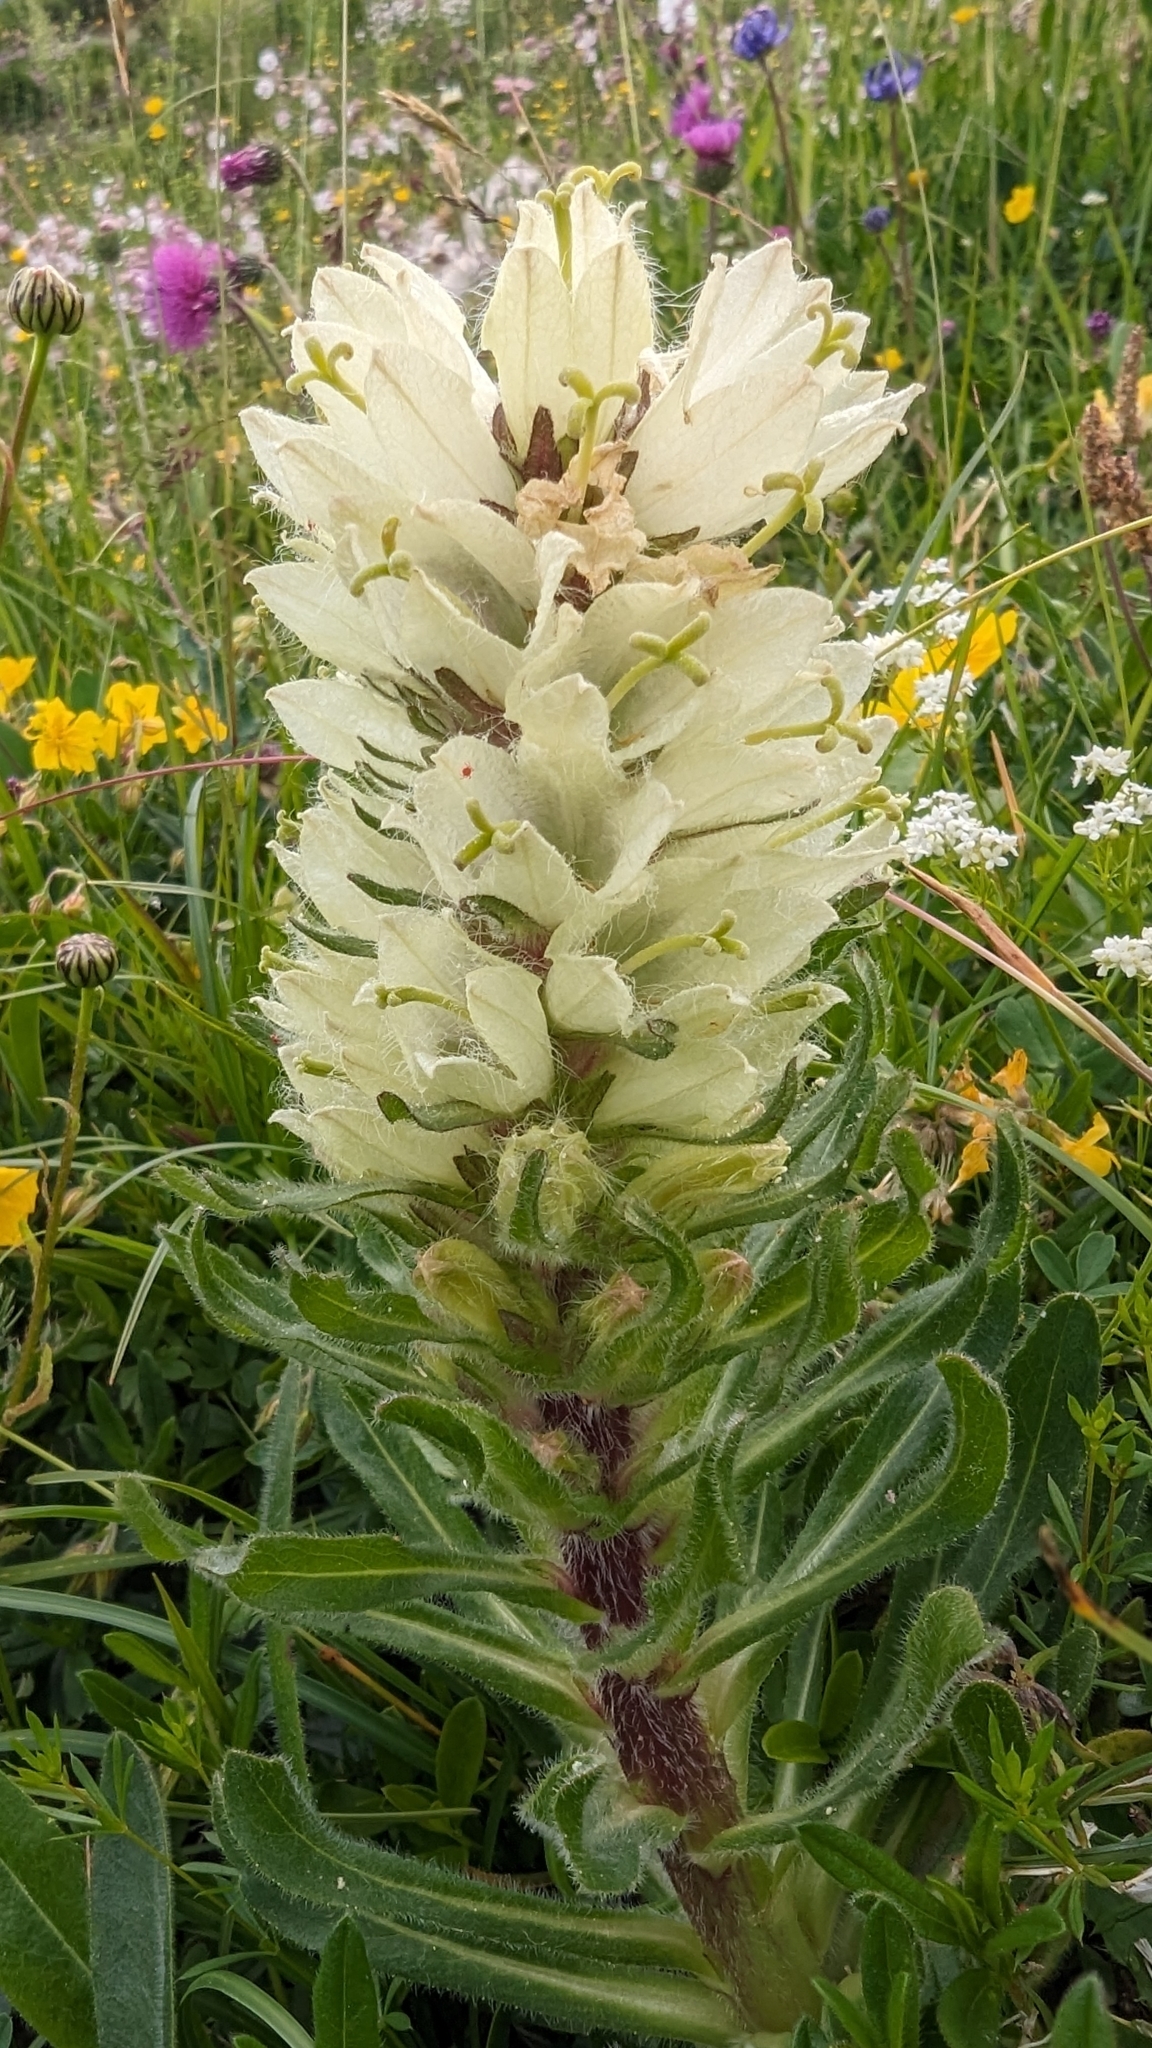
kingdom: Plantae
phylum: Tracheophyta
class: Magnoliopsida
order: Asterales
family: Campanulaceae
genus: Campanula
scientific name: Campanula thyrsoides
